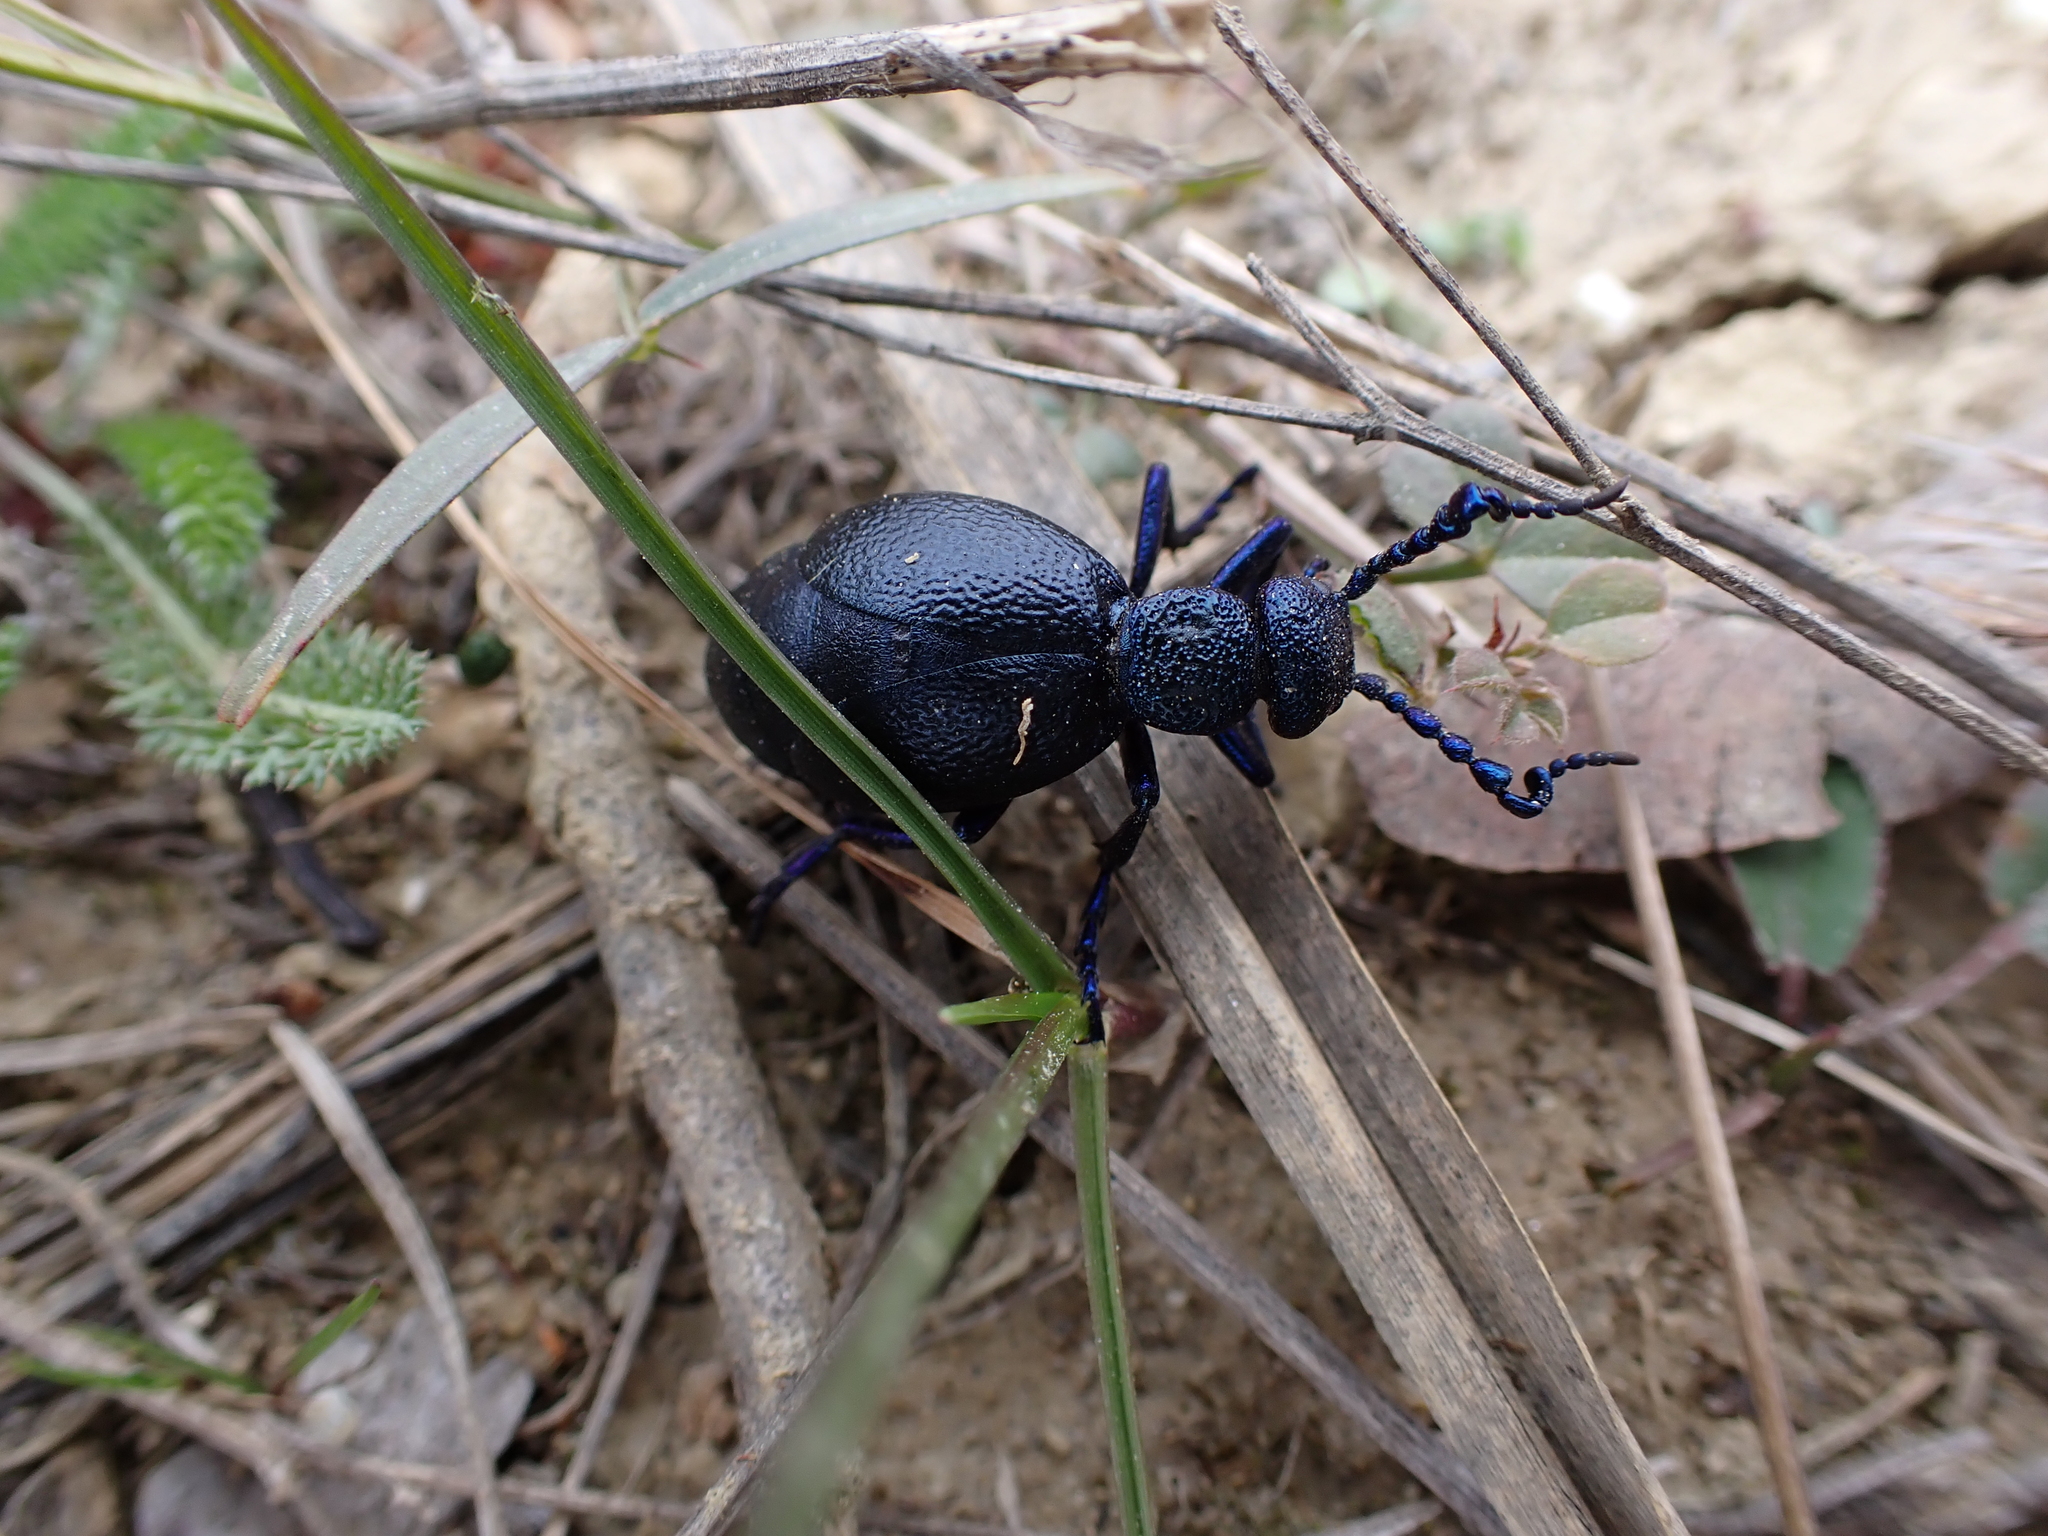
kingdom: Animalia
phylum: Arthropoda
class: Insecta
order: Coleoptera
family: Meloidae
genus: Meloe
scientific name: Meloe proscarabaeus
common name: Black oil-beetle
